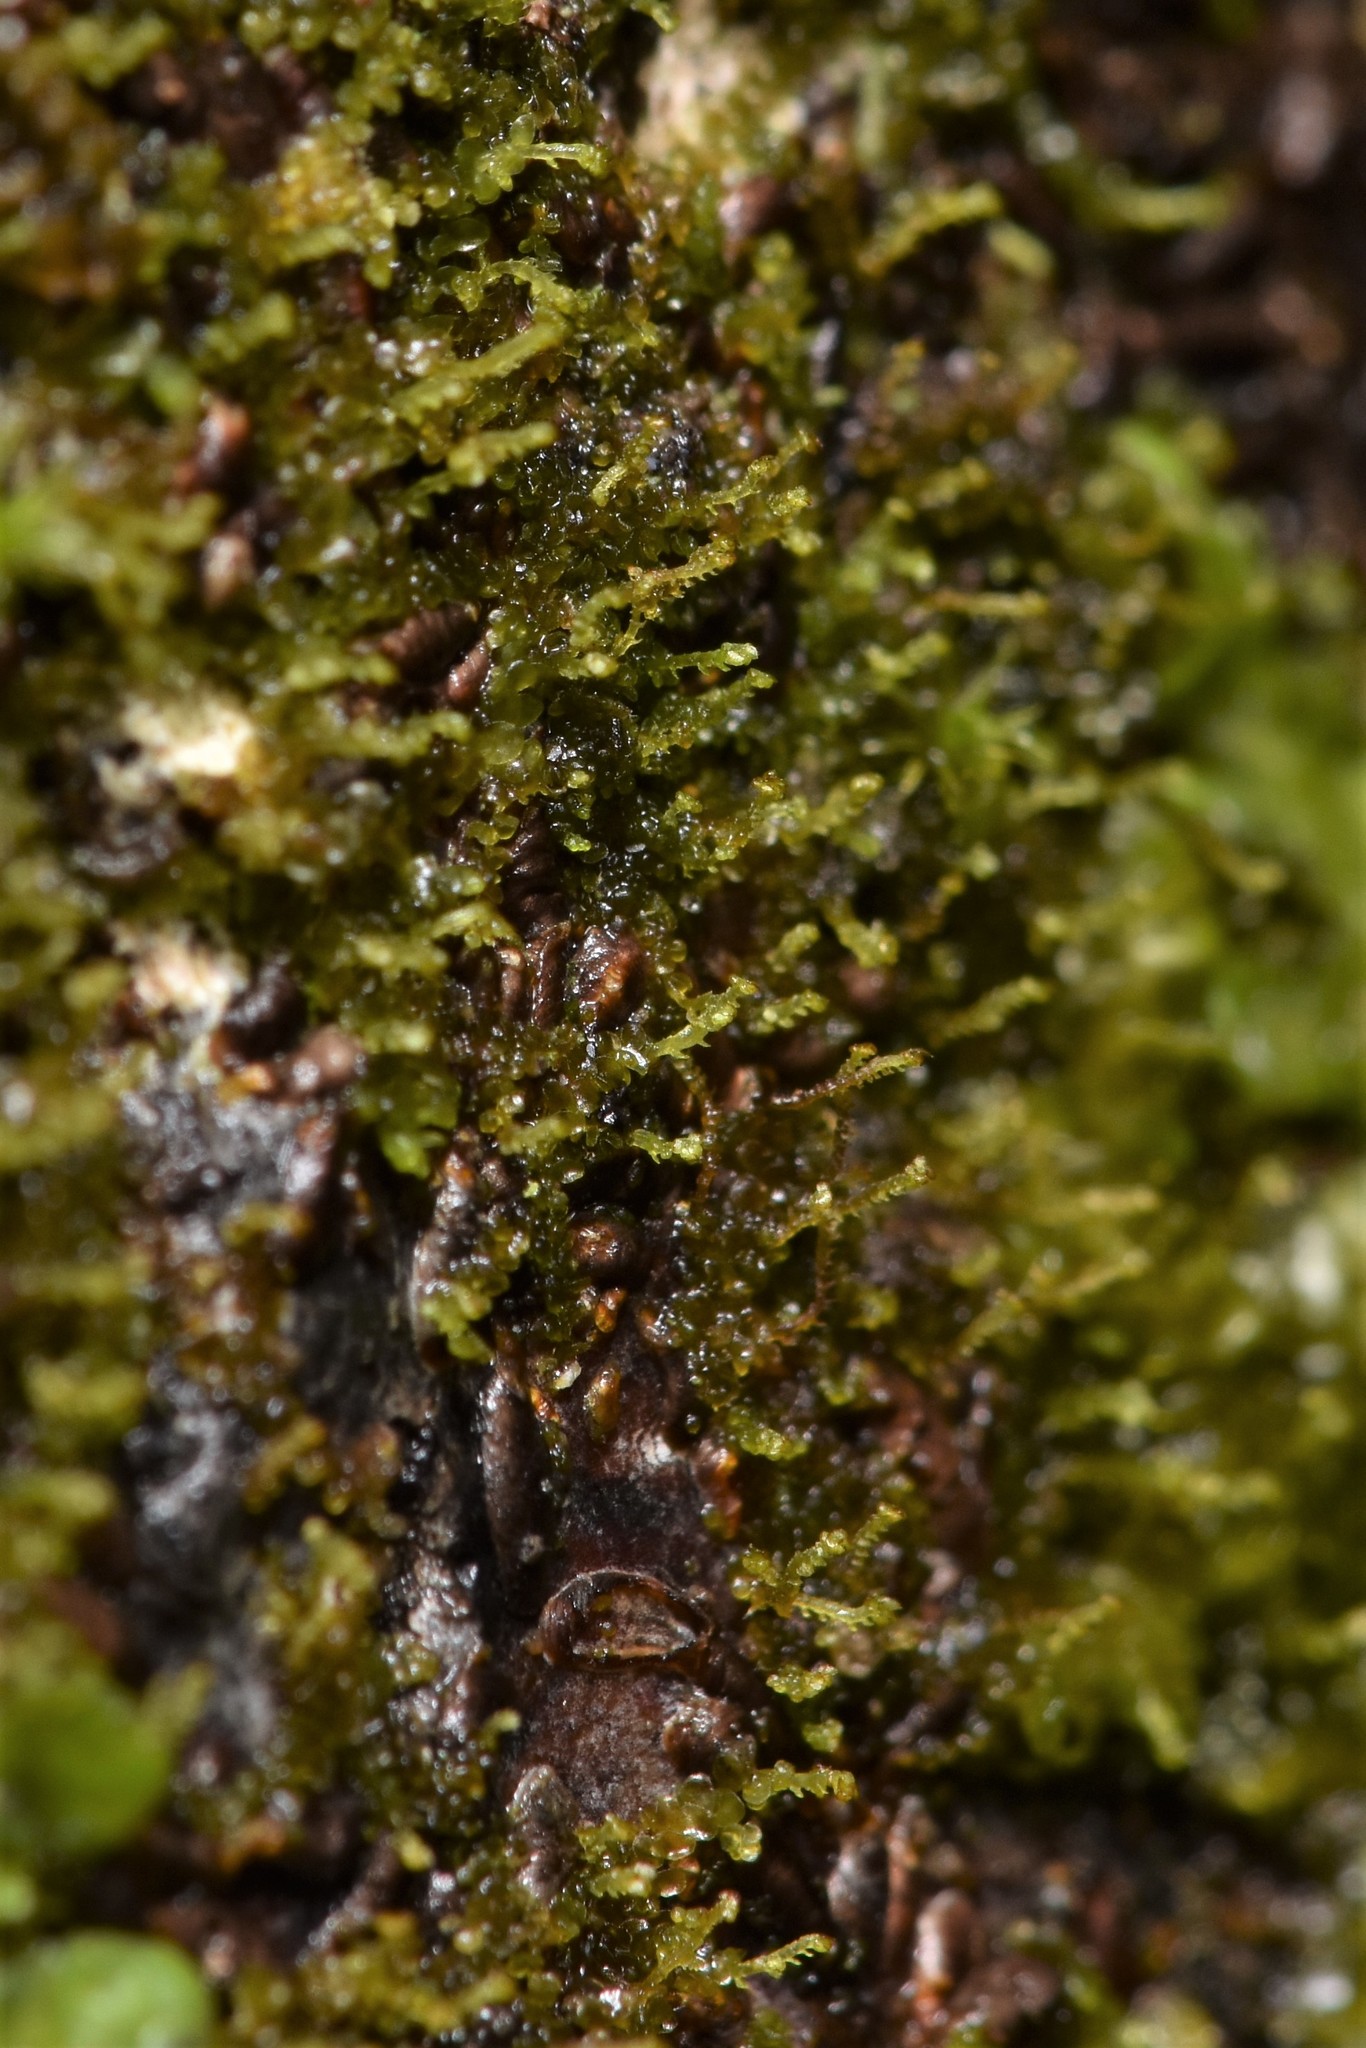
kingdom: Plantae
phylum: Marchantiophyta
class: Jungermanniopsida
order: Porellales
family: Frullaniaceae
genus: Frullania
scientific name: Frullania bolanderi
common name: Bolander s scalewort
